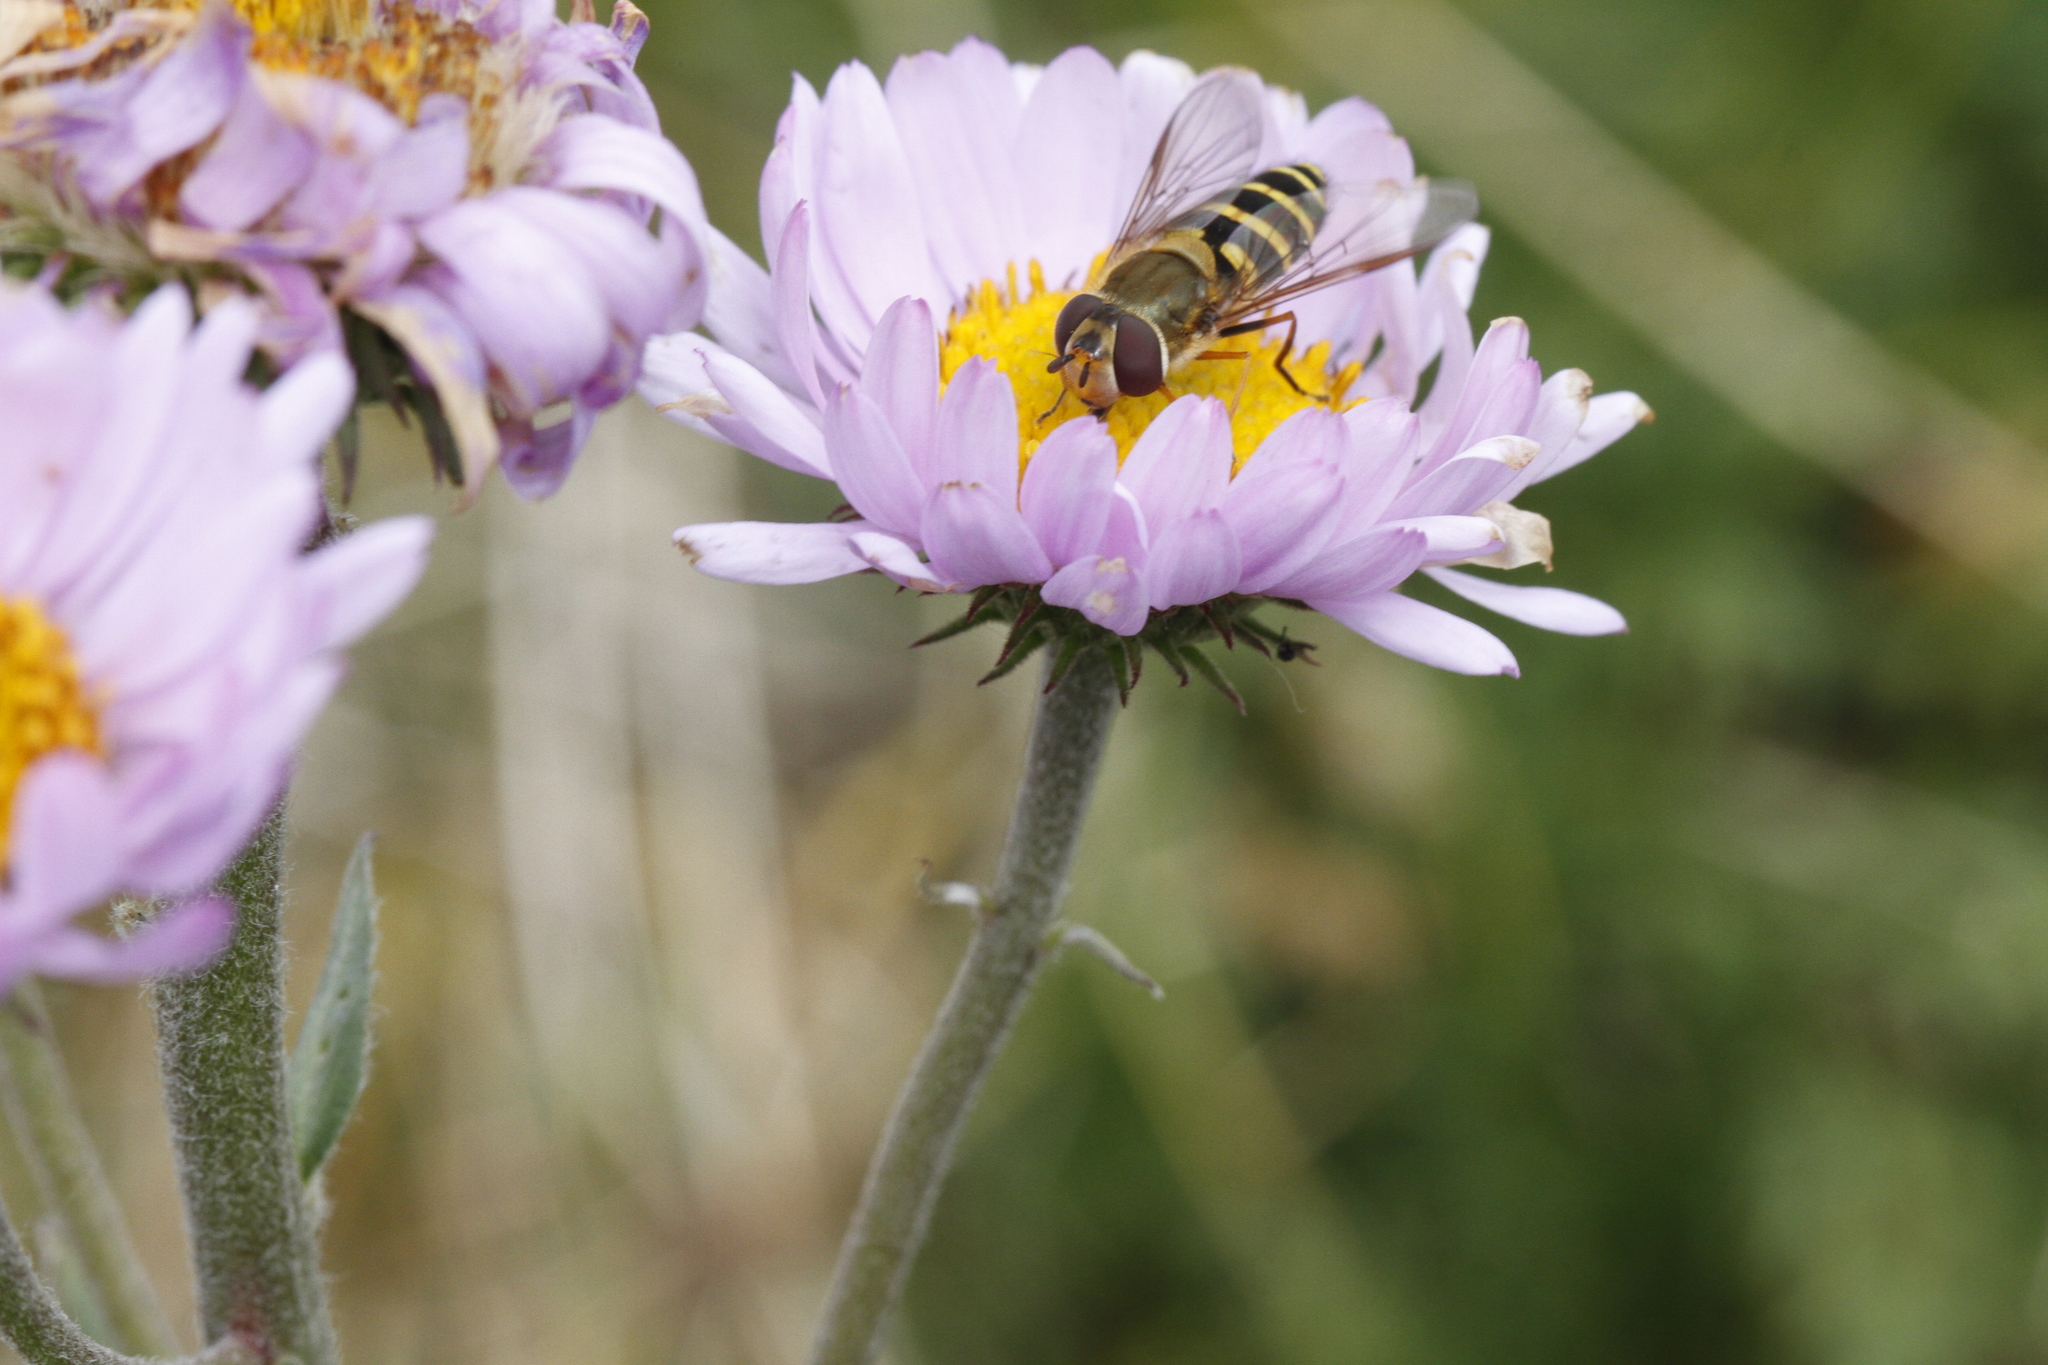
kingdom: Animalia
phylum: Arthropoda
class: Insecta
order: Diptera
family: Syrphidae
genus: Syrphus
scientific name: Syrphus torvus
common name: Hairy-eyed flower fly
